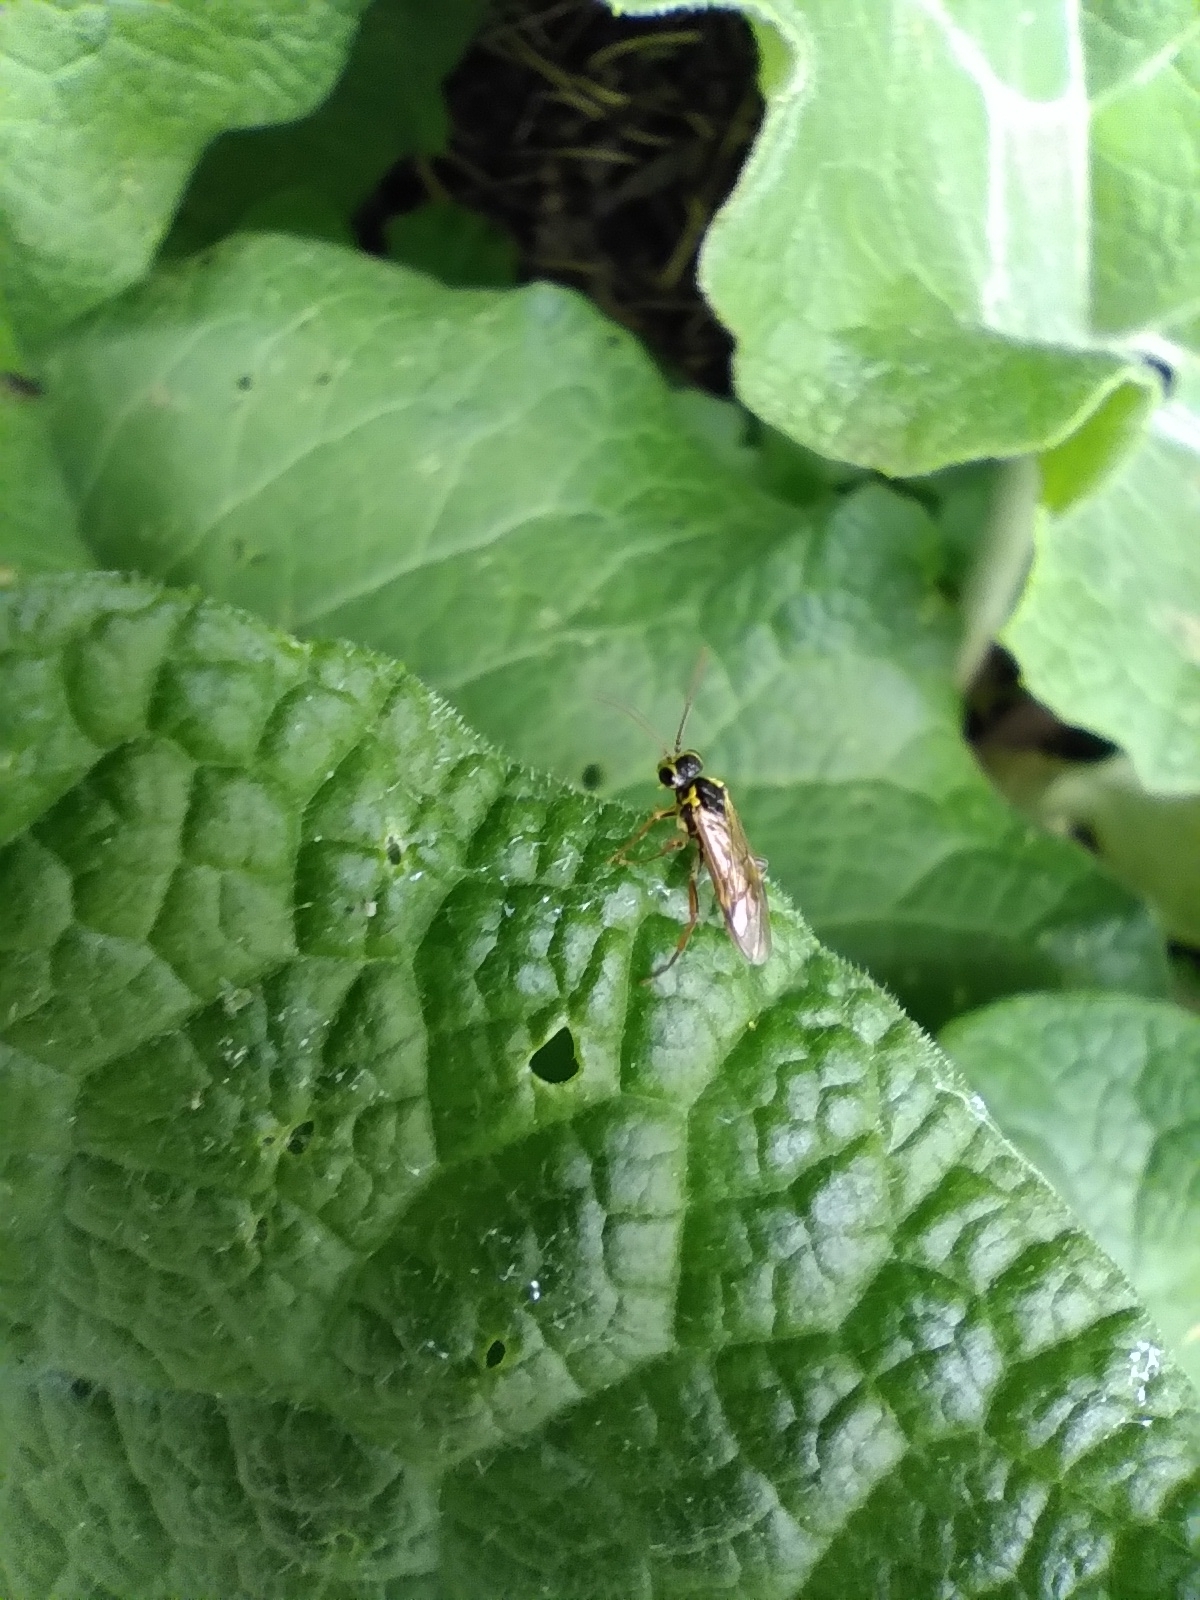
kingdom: Animalia
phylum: Arthropoda
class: Insecta
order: Hymenoptera
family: Tenthredinidae
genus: Aglaostigma
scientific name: Aglaostigma fulvipes
